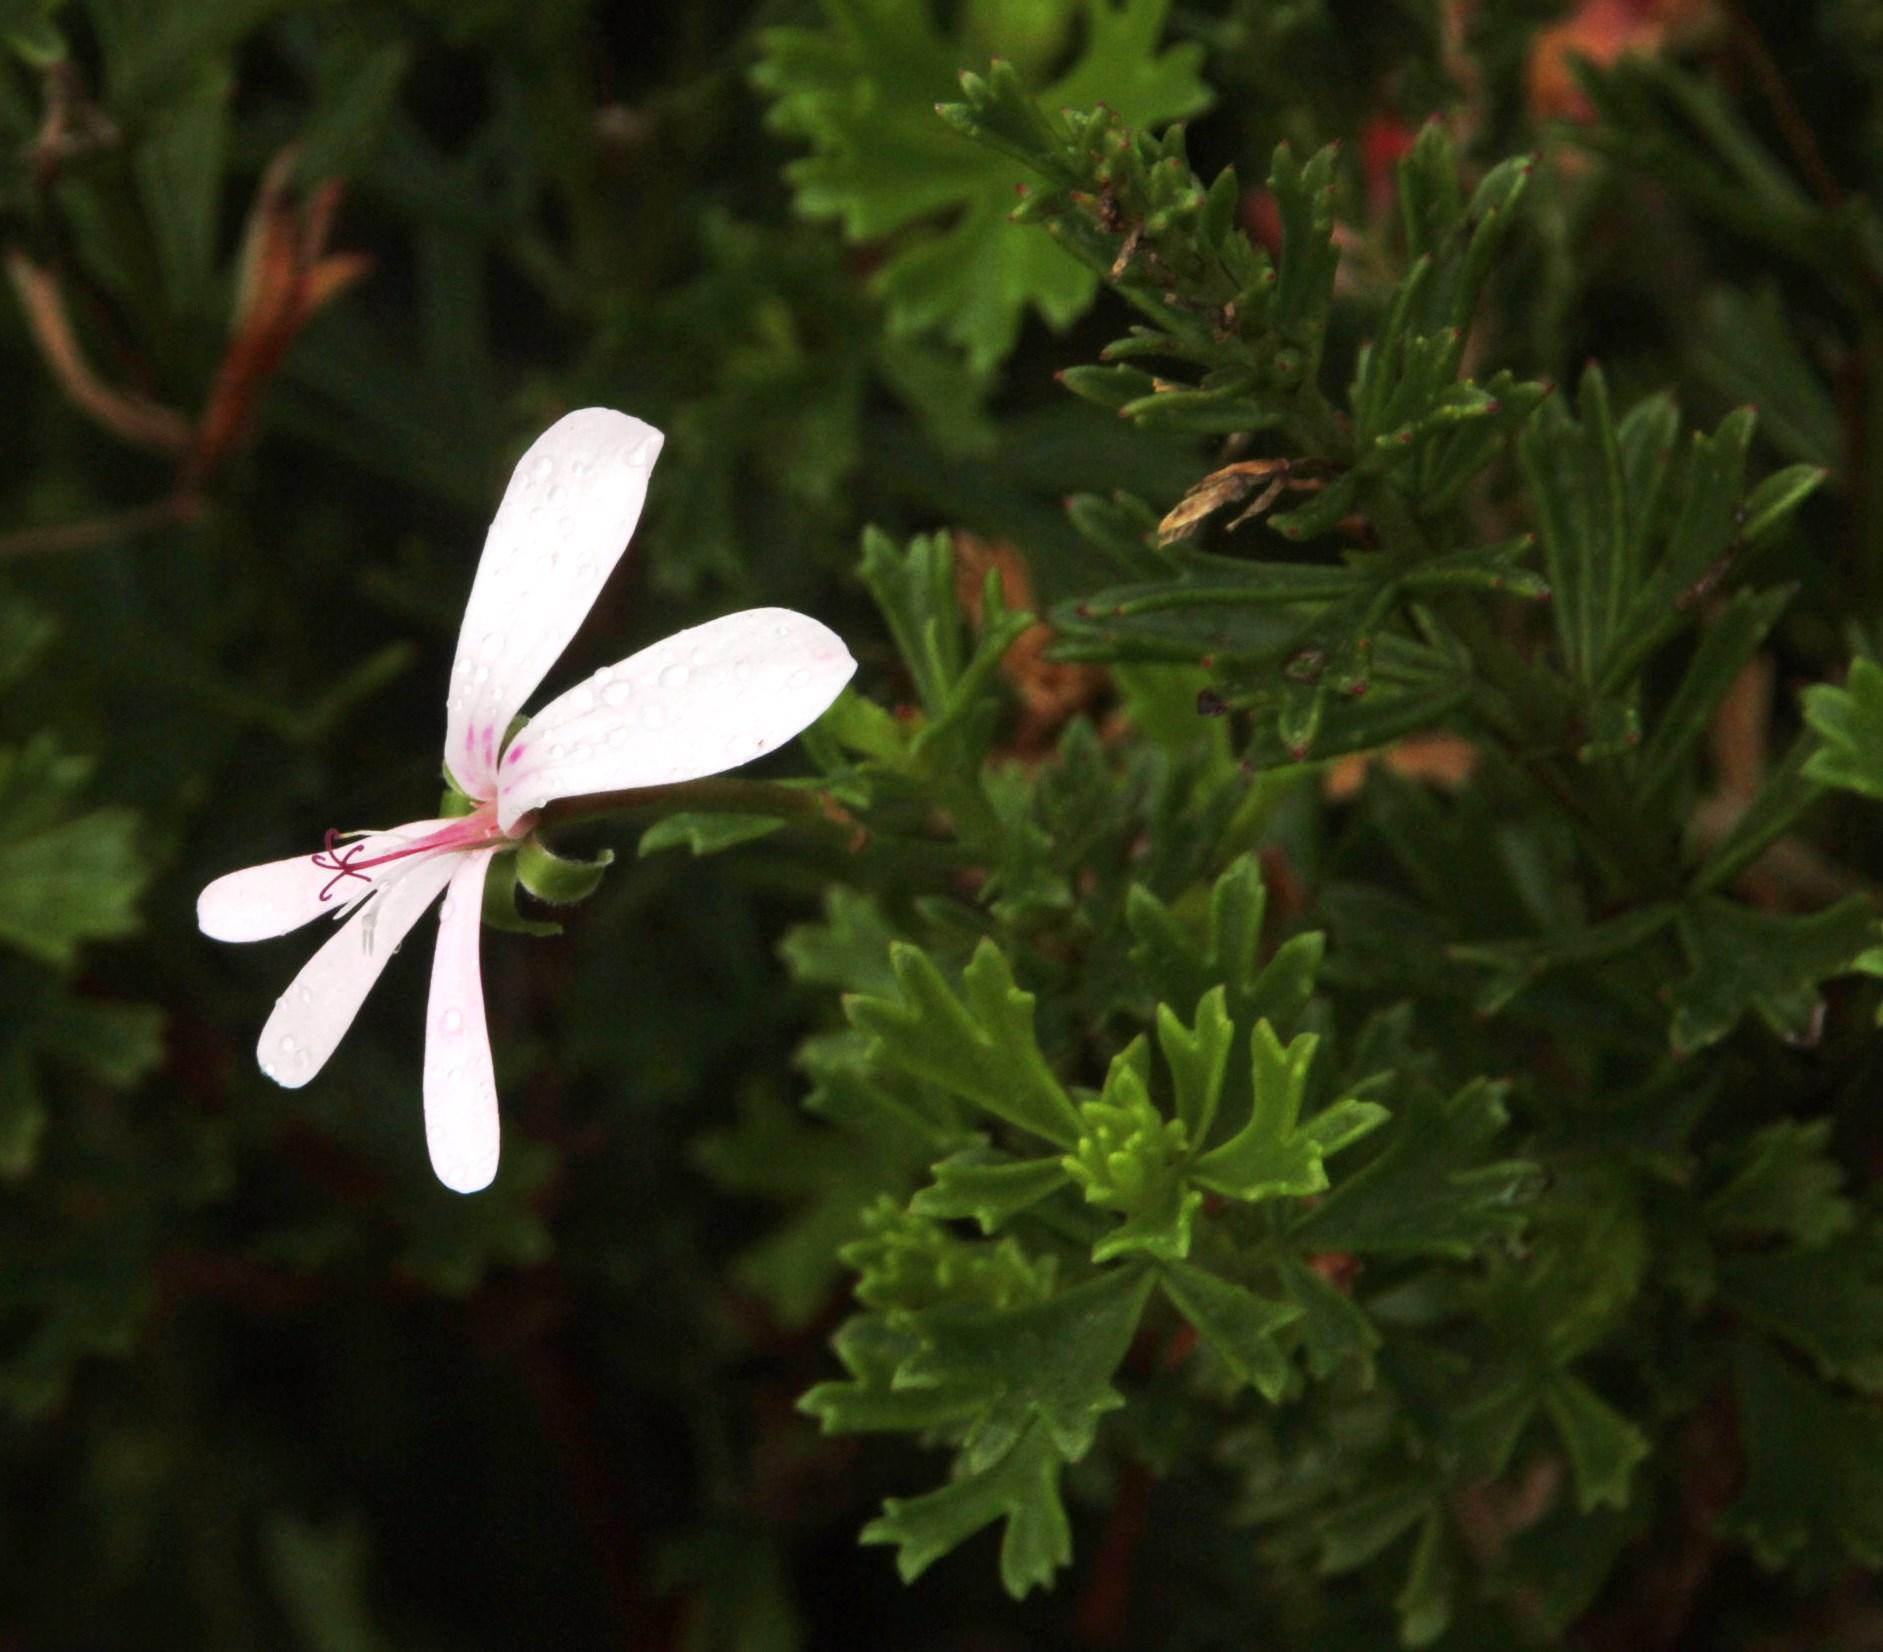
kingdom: Plantae
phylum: Tracheophyta
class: Magnoliopsida
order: Geraniales
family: Geraniaceae
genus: Pelargonium
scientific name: Pelargonium ternatum
